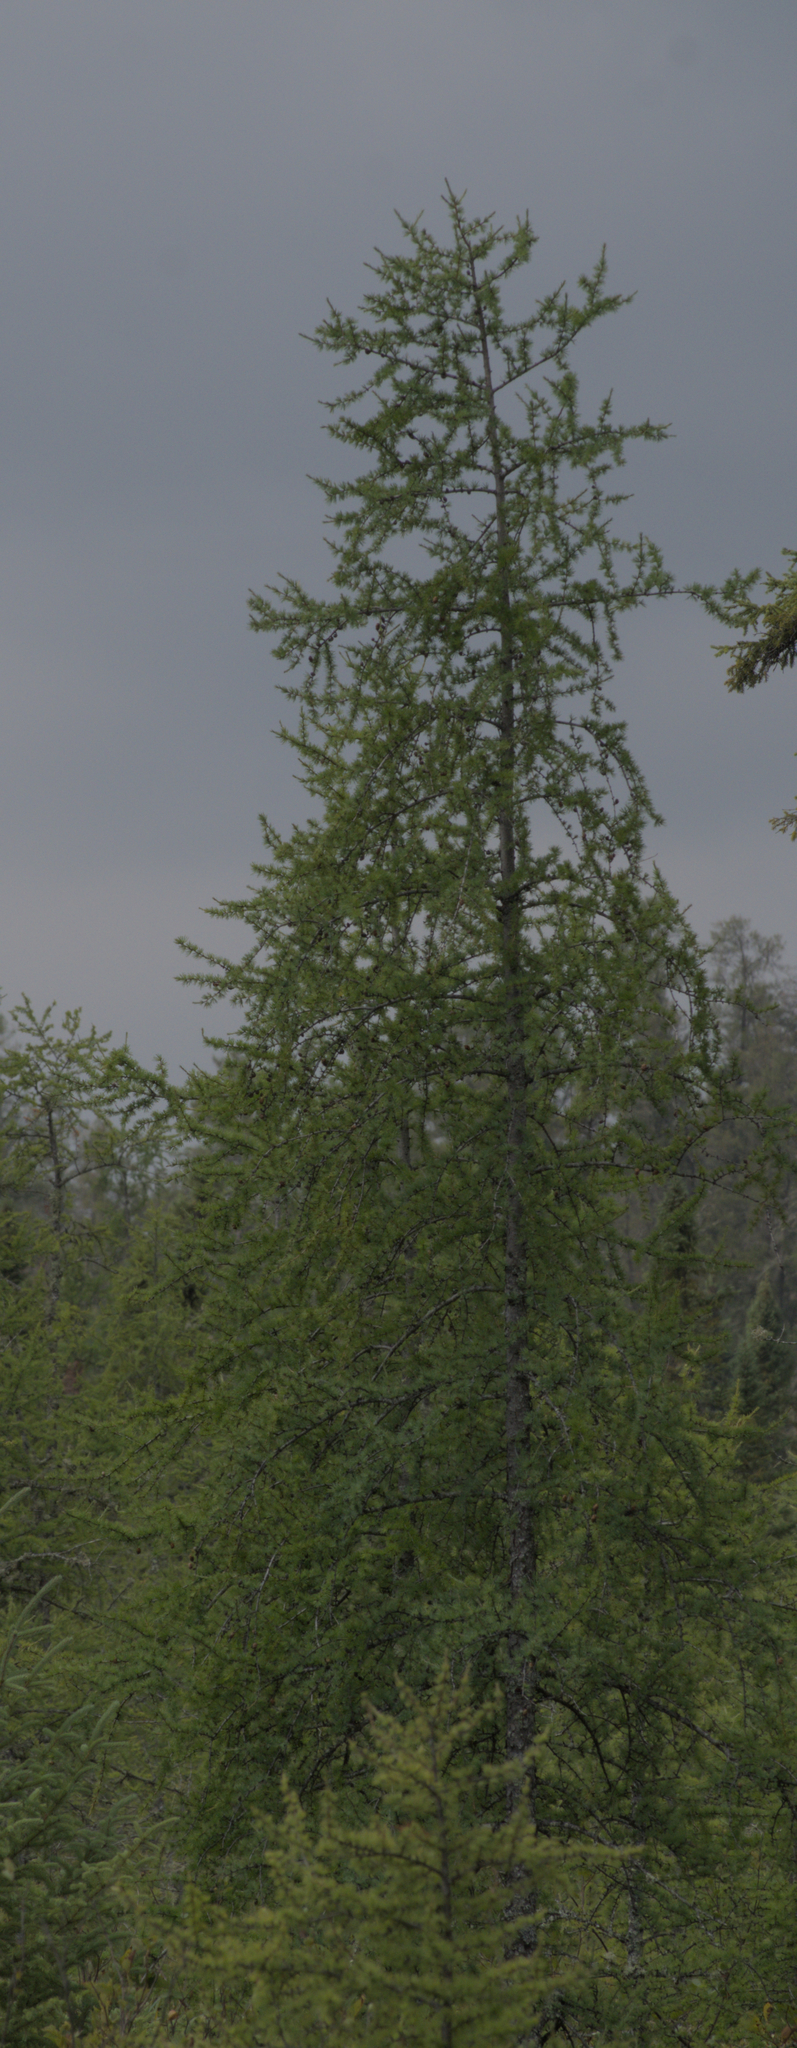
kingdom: Plantae
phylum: Tracheophyta
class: Pinopsida
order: Pinales
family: Pinaceae
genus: Larix
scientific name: Larix laricina
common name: American larch
